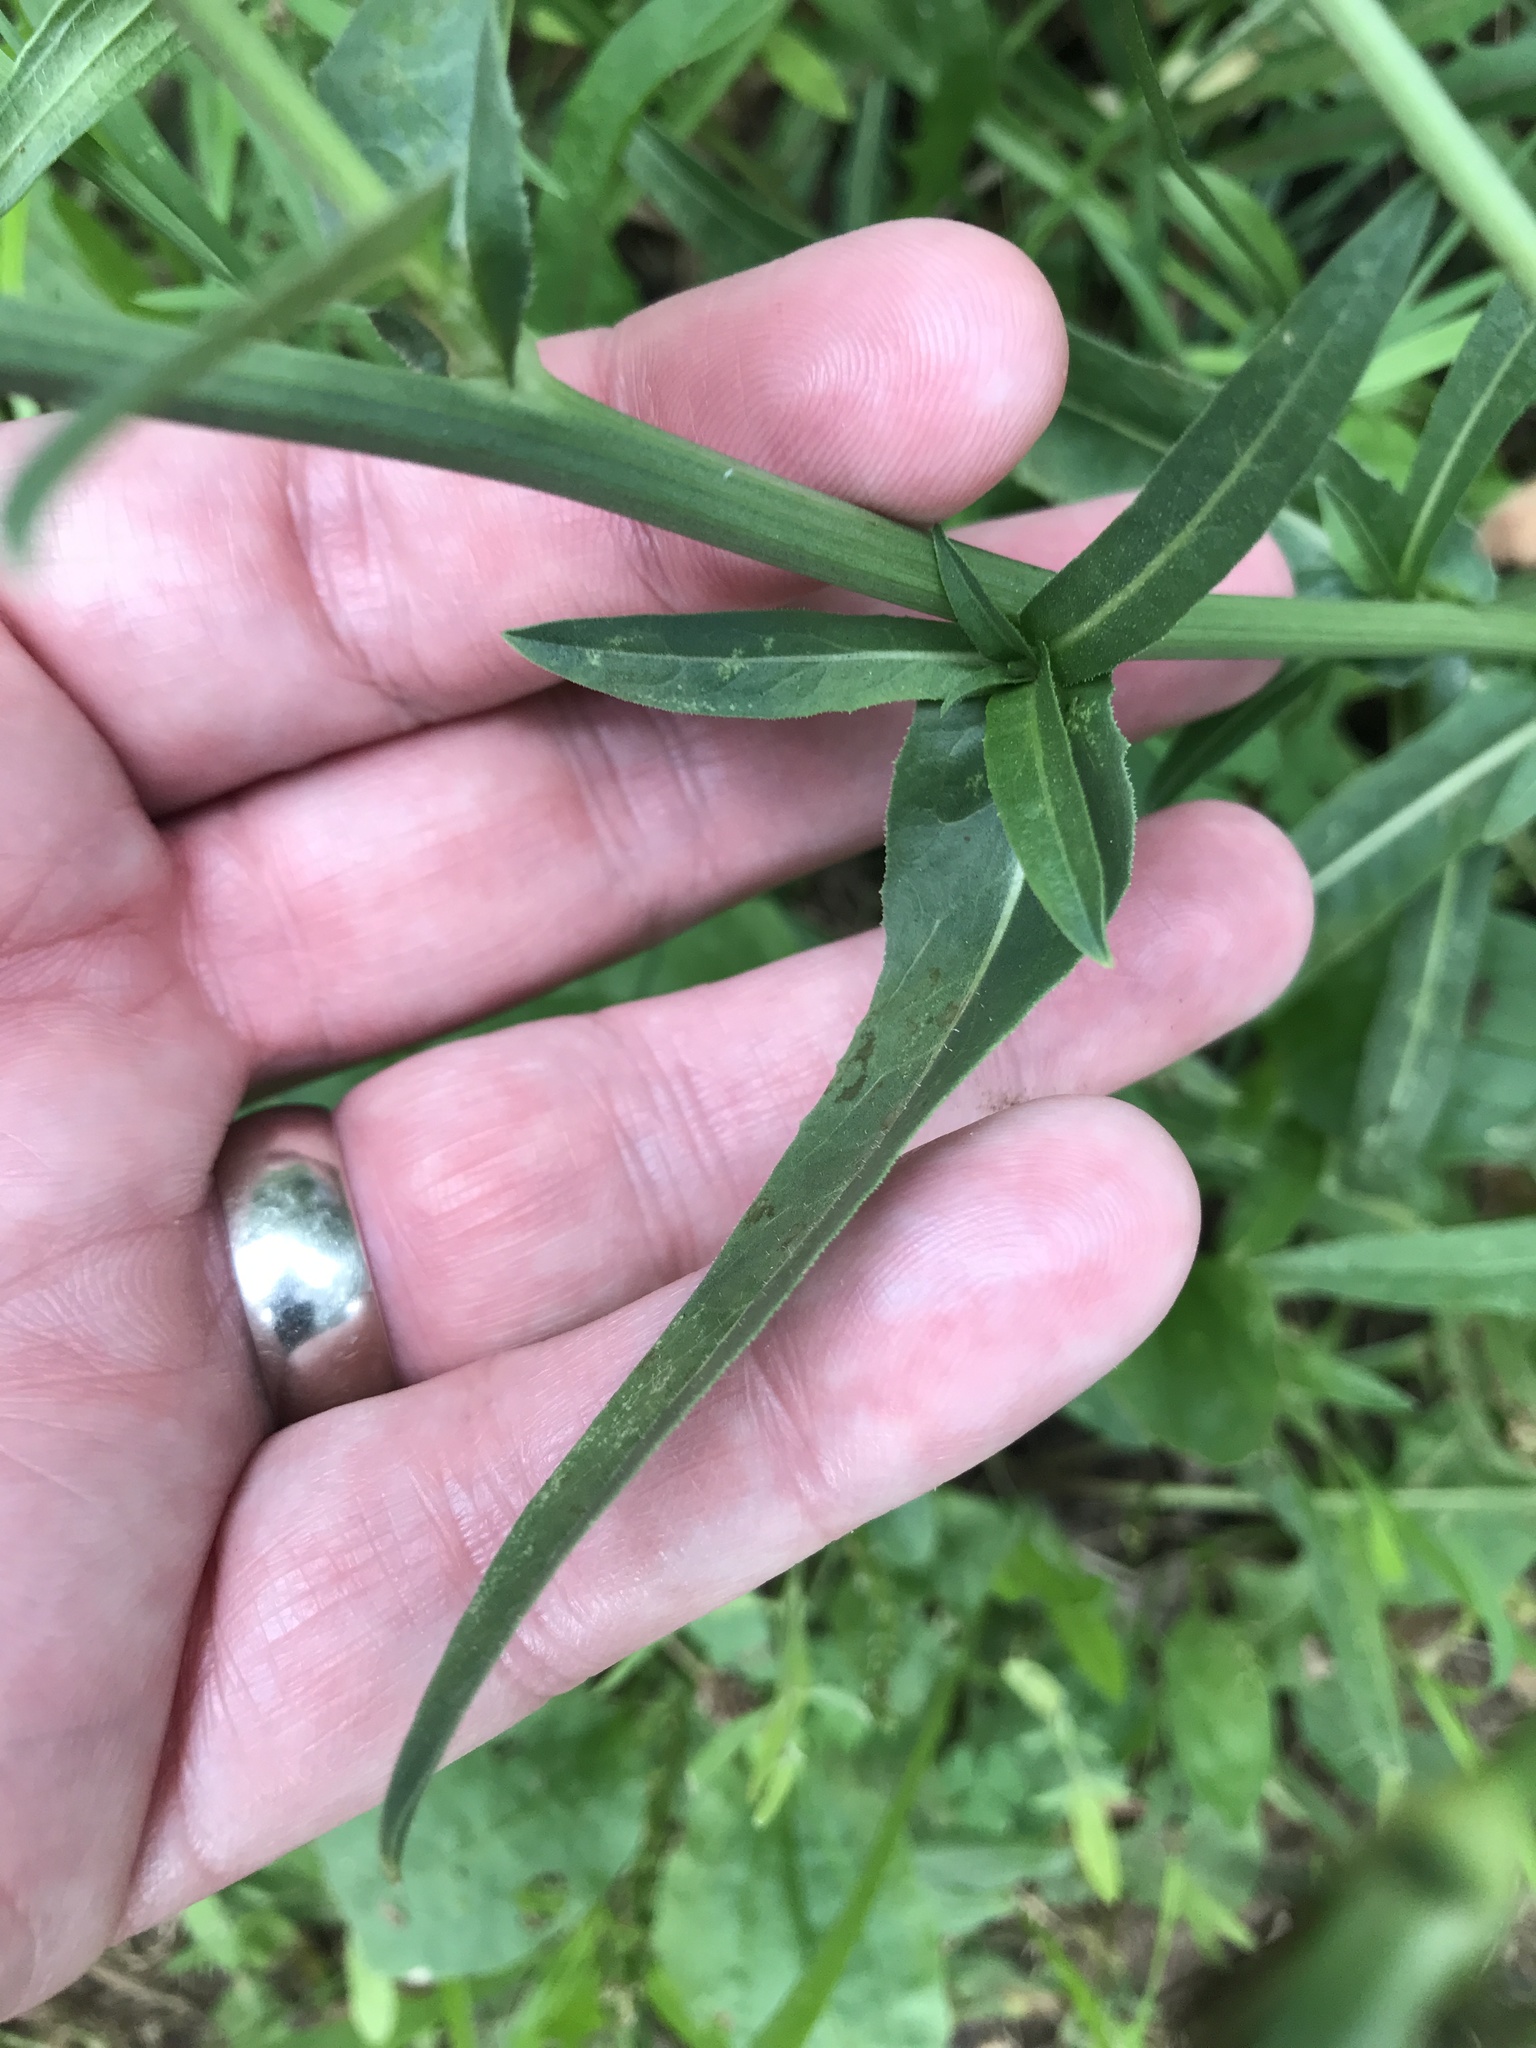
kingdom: Plantae
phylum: Tracheophyta
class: Magnoliopsida
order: Asterales
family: Asteraceae
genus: Cichorium
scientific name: Cichorium intybus
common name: Chicory
